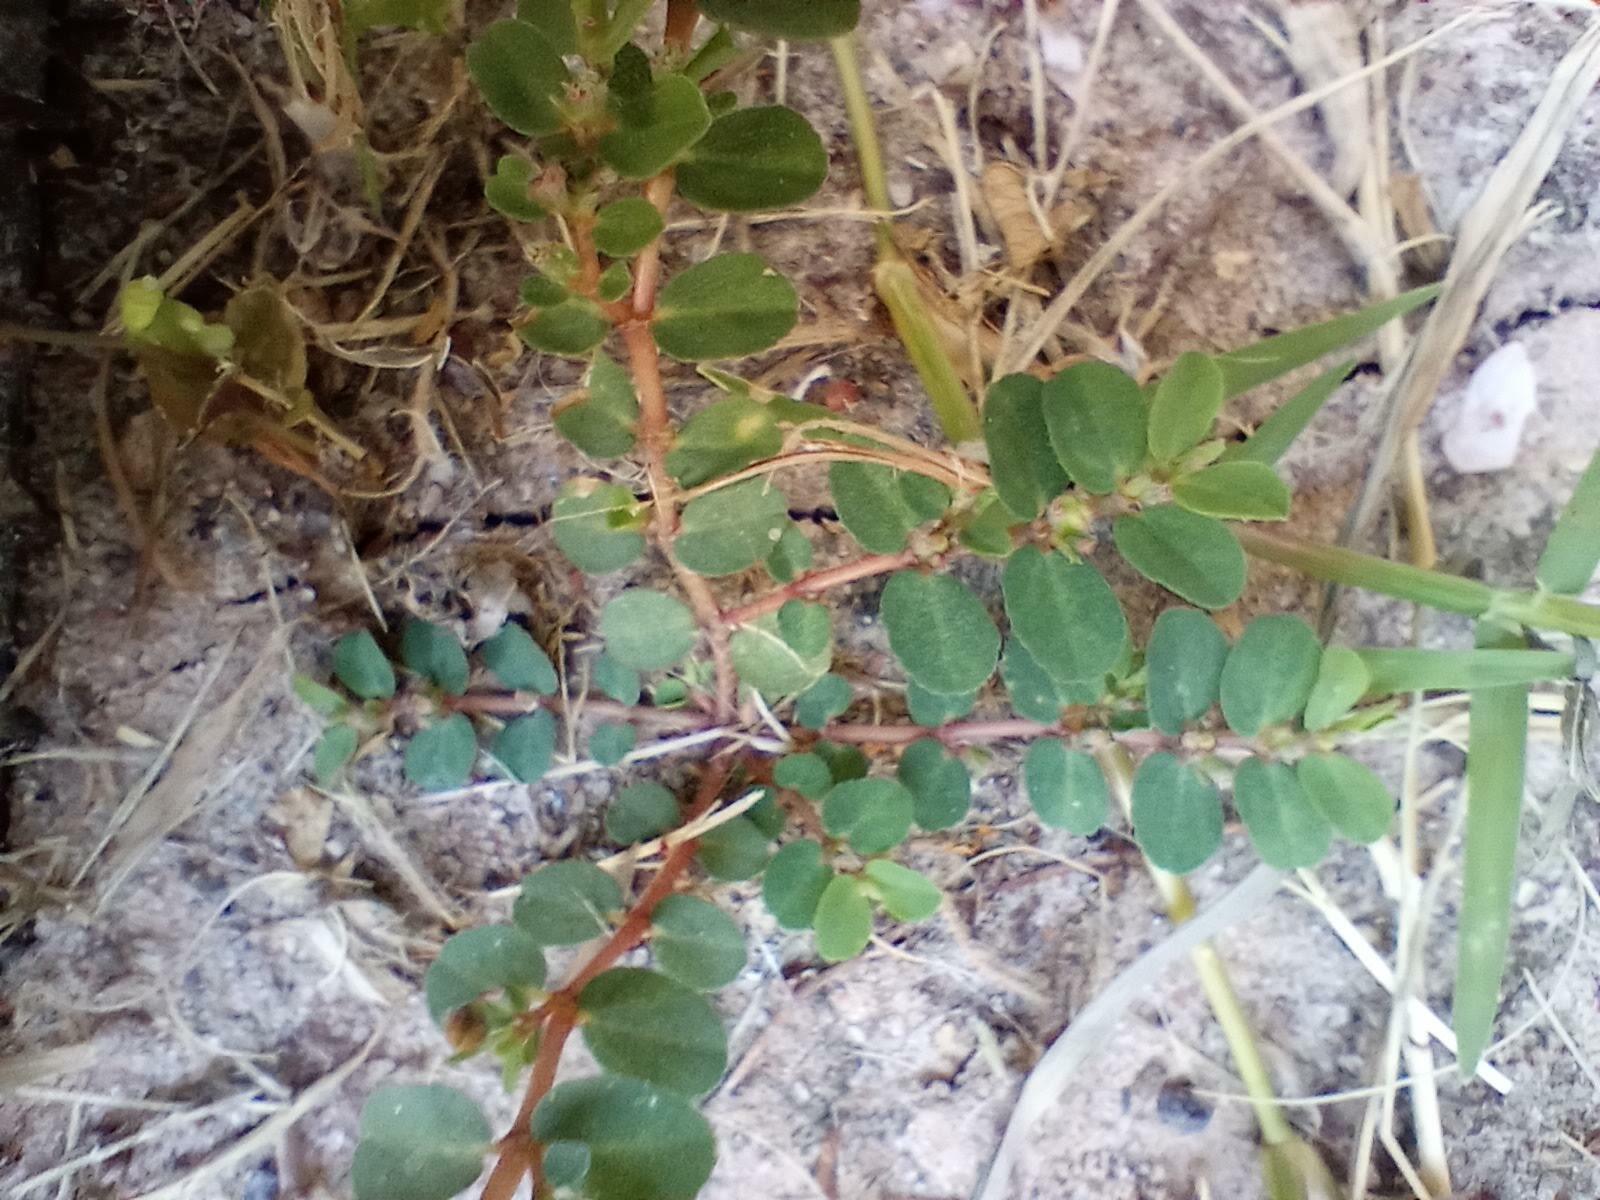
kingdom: Plantae
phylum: Tracheophyta
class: Magnoliopsida
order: Malpighiales
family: Euphorbiaceae
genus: Euphorbia
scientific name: Euphorbia prostrata
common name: Prostrate sandmat
